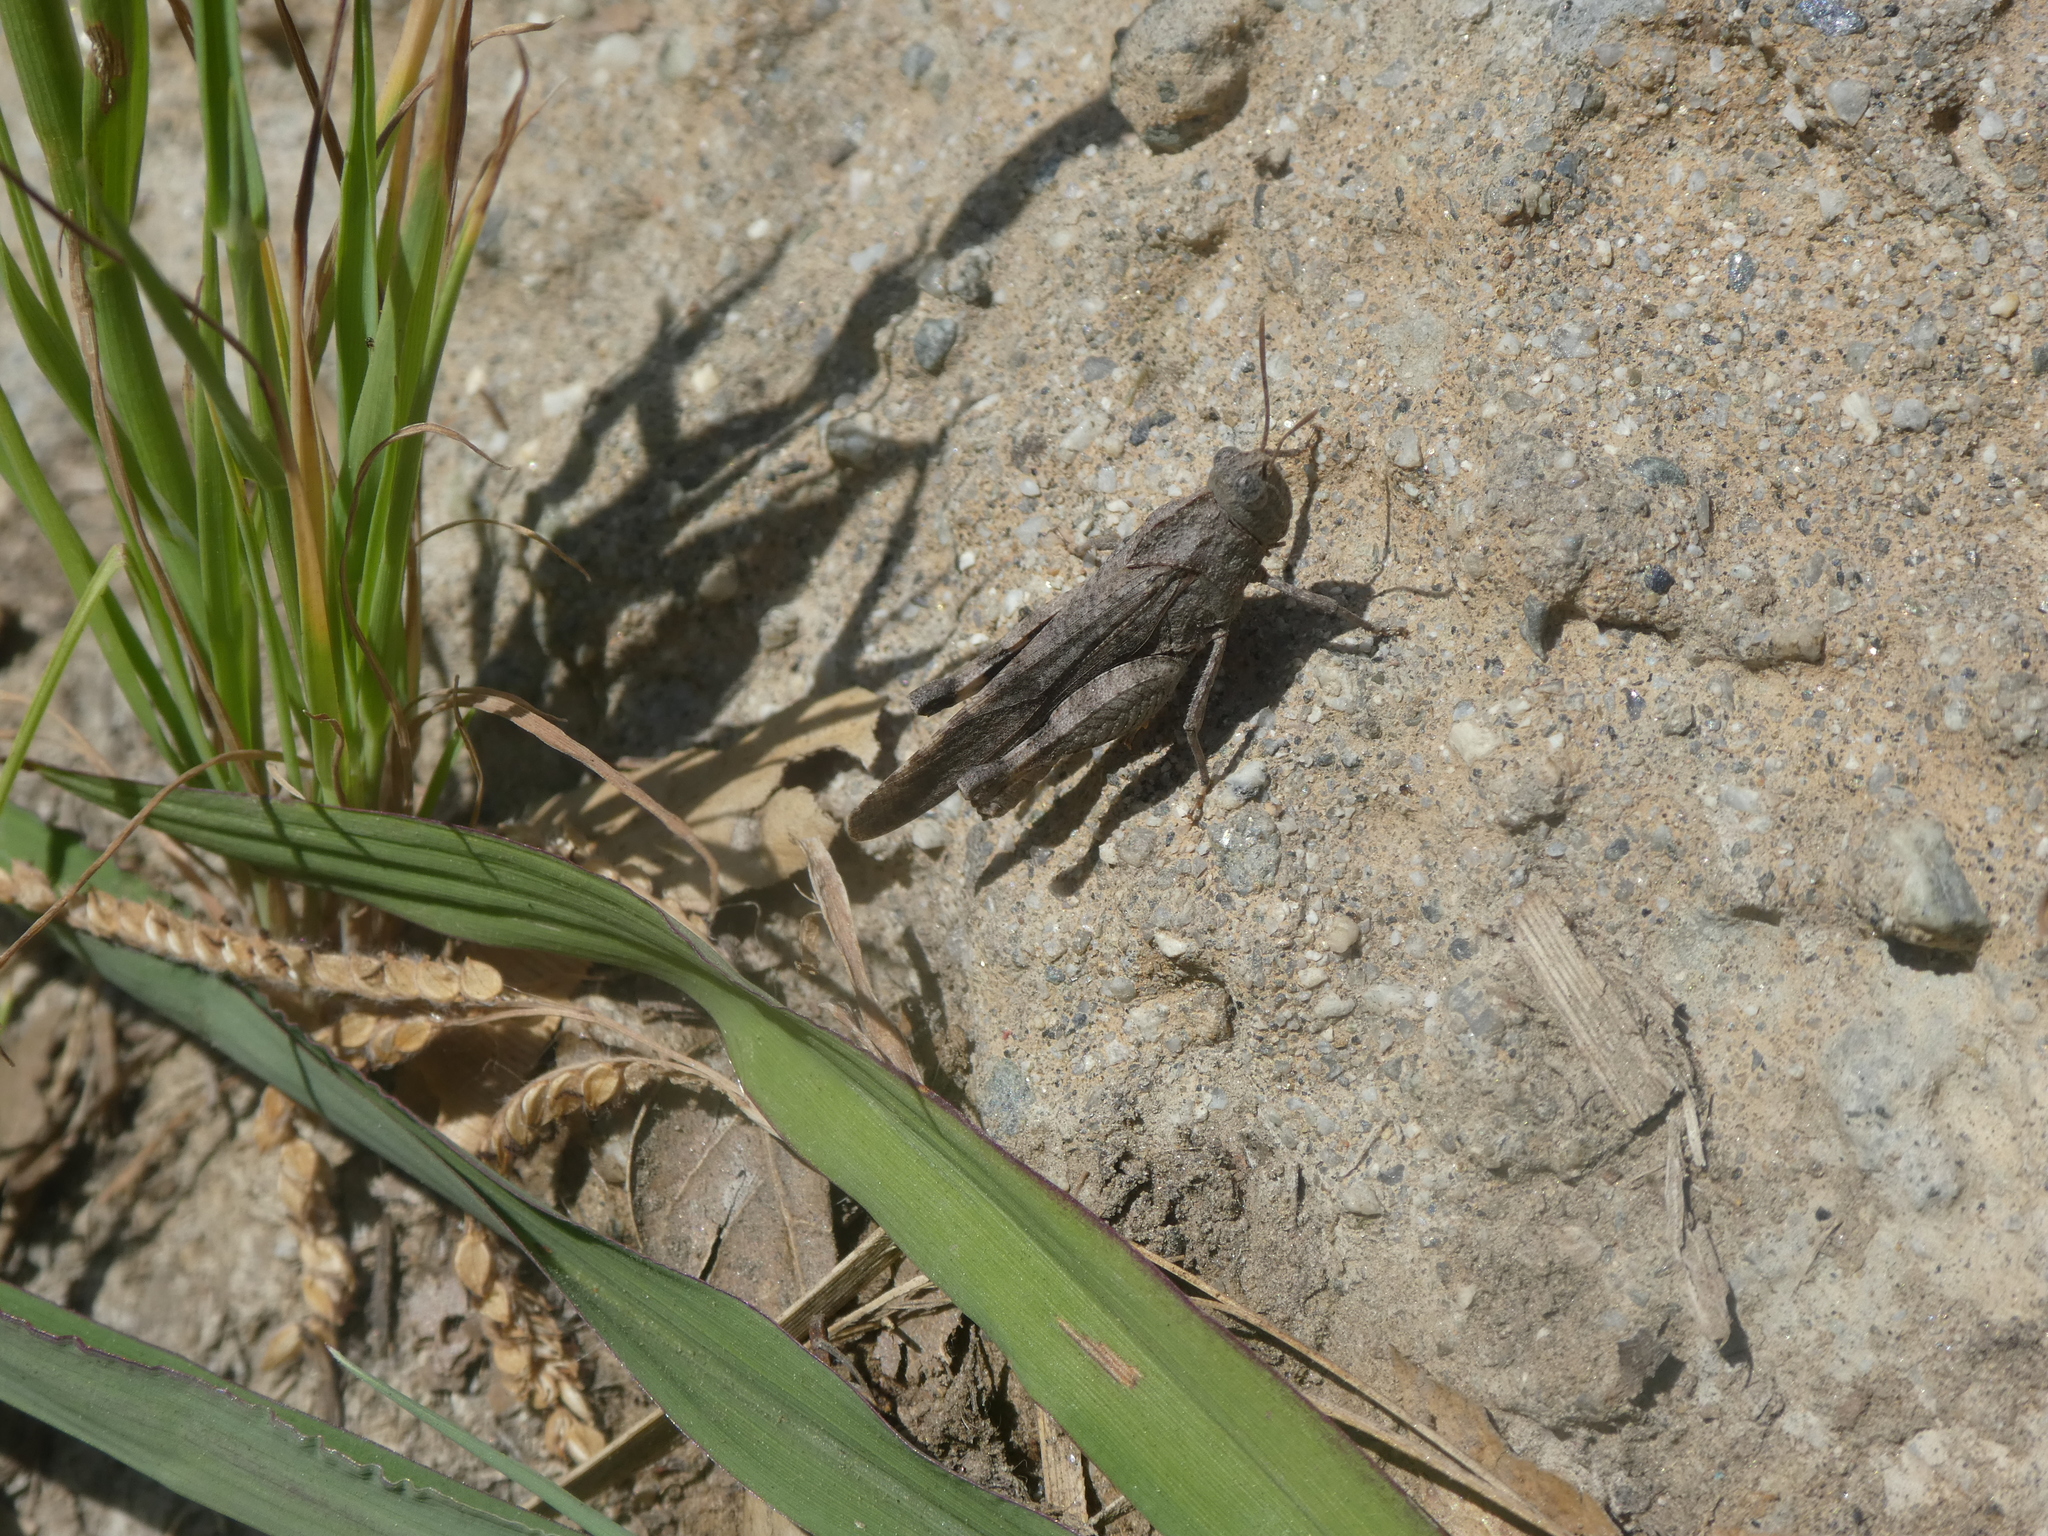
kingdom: Animalia
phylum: Arthropoda
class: Insecta
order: Orthoptera
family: Acrididae
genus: Lactista
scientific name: Lactista gibbosus
